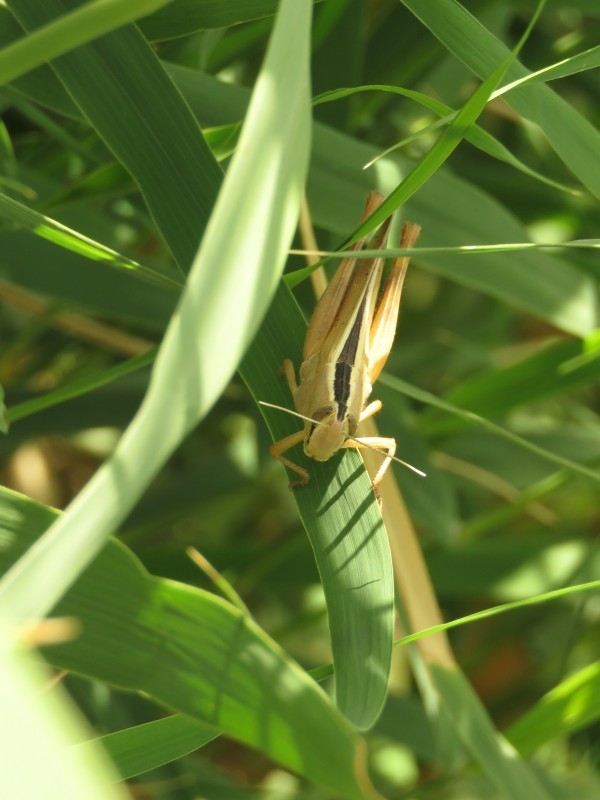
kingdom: Animalia
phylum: Arthropoda
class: Insecta
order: Orthoptera
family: Acrididae
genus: Heteracris
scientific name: Heteracris pterosticha
